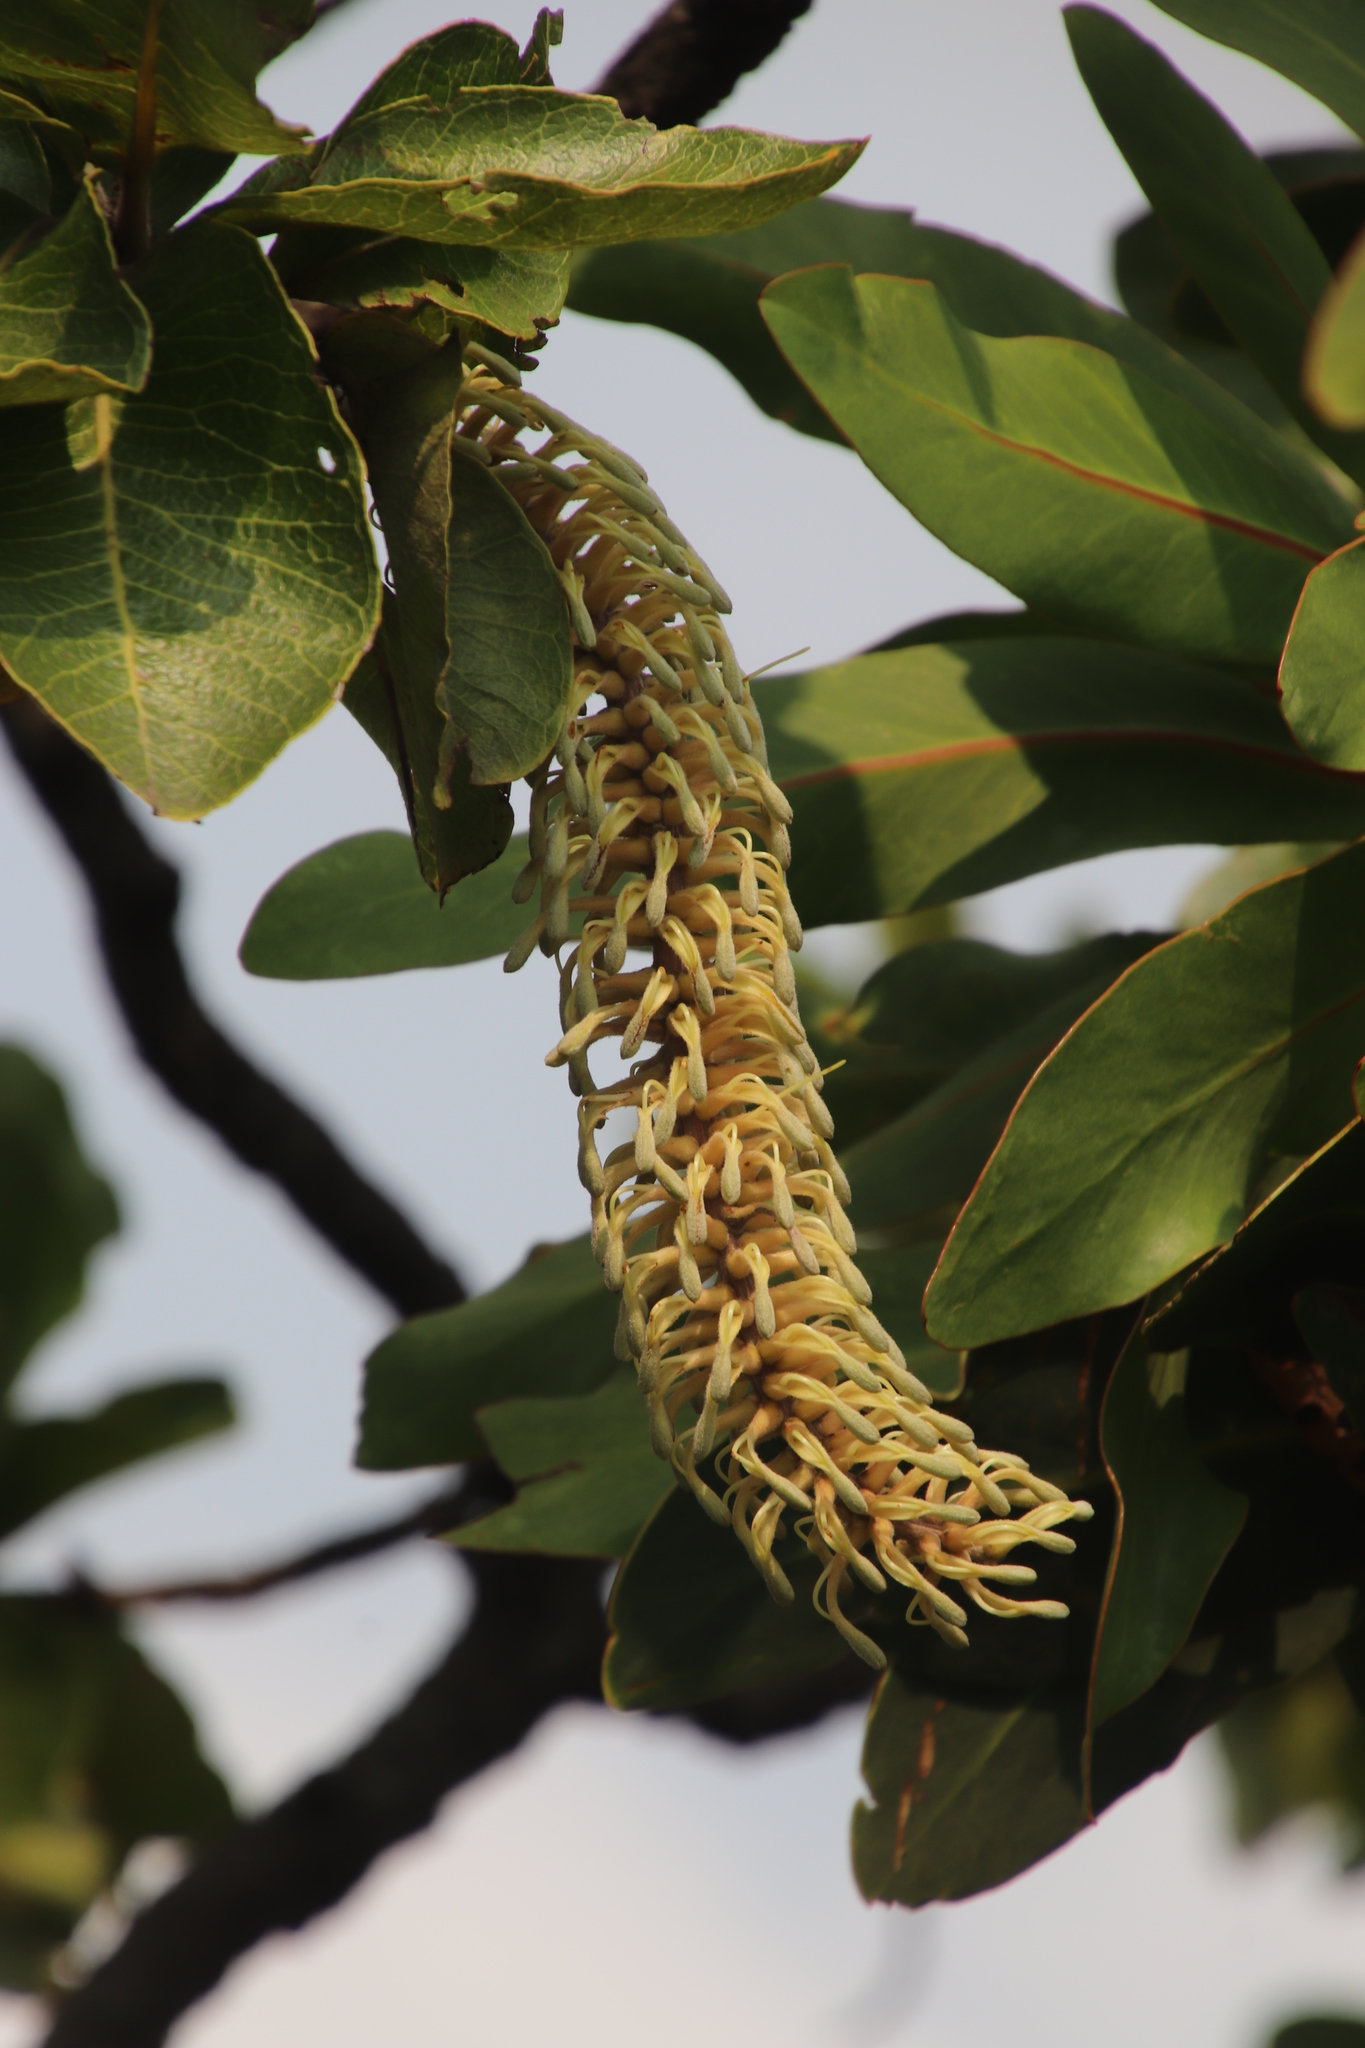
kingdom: Plantae
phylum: Tracheophyta
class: Magnoliopsida
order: Proteales
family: Proteaceae
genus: Faurea
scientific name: Faurea rochetiana
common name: Broad-leaved beech
